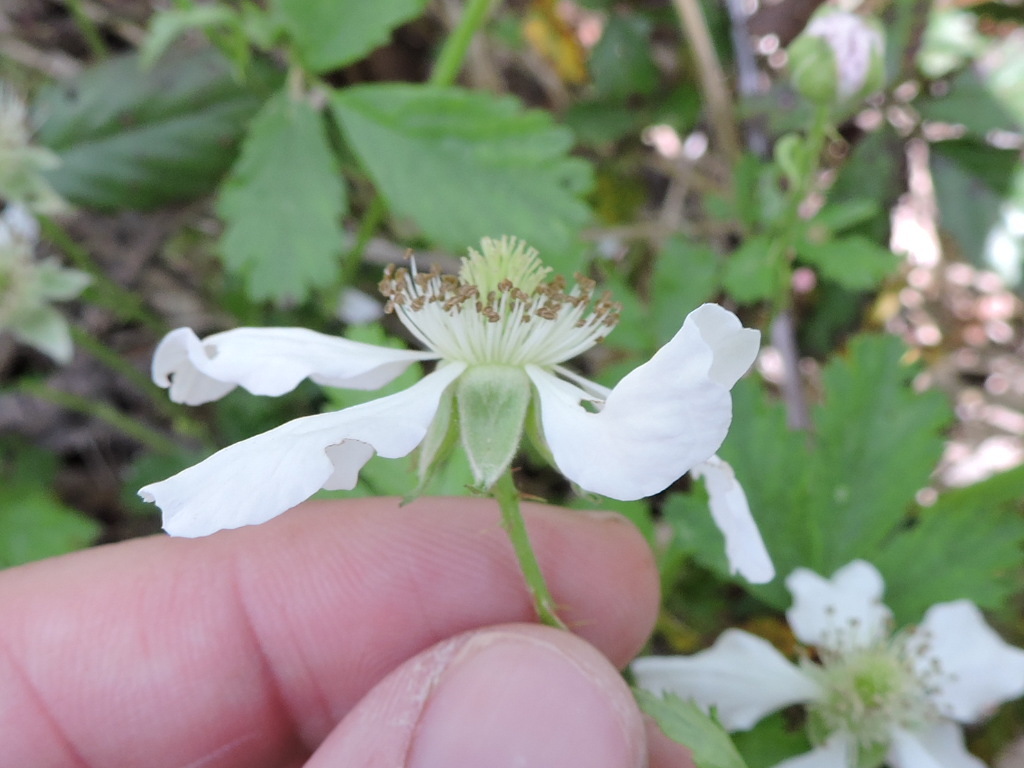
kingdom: Plantae
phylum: Tracheophyta
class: Magnoliopsida
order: Rosales
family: Rosaceae
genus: Rubus
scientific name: Rubus trivialis
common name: Southern dewberry
